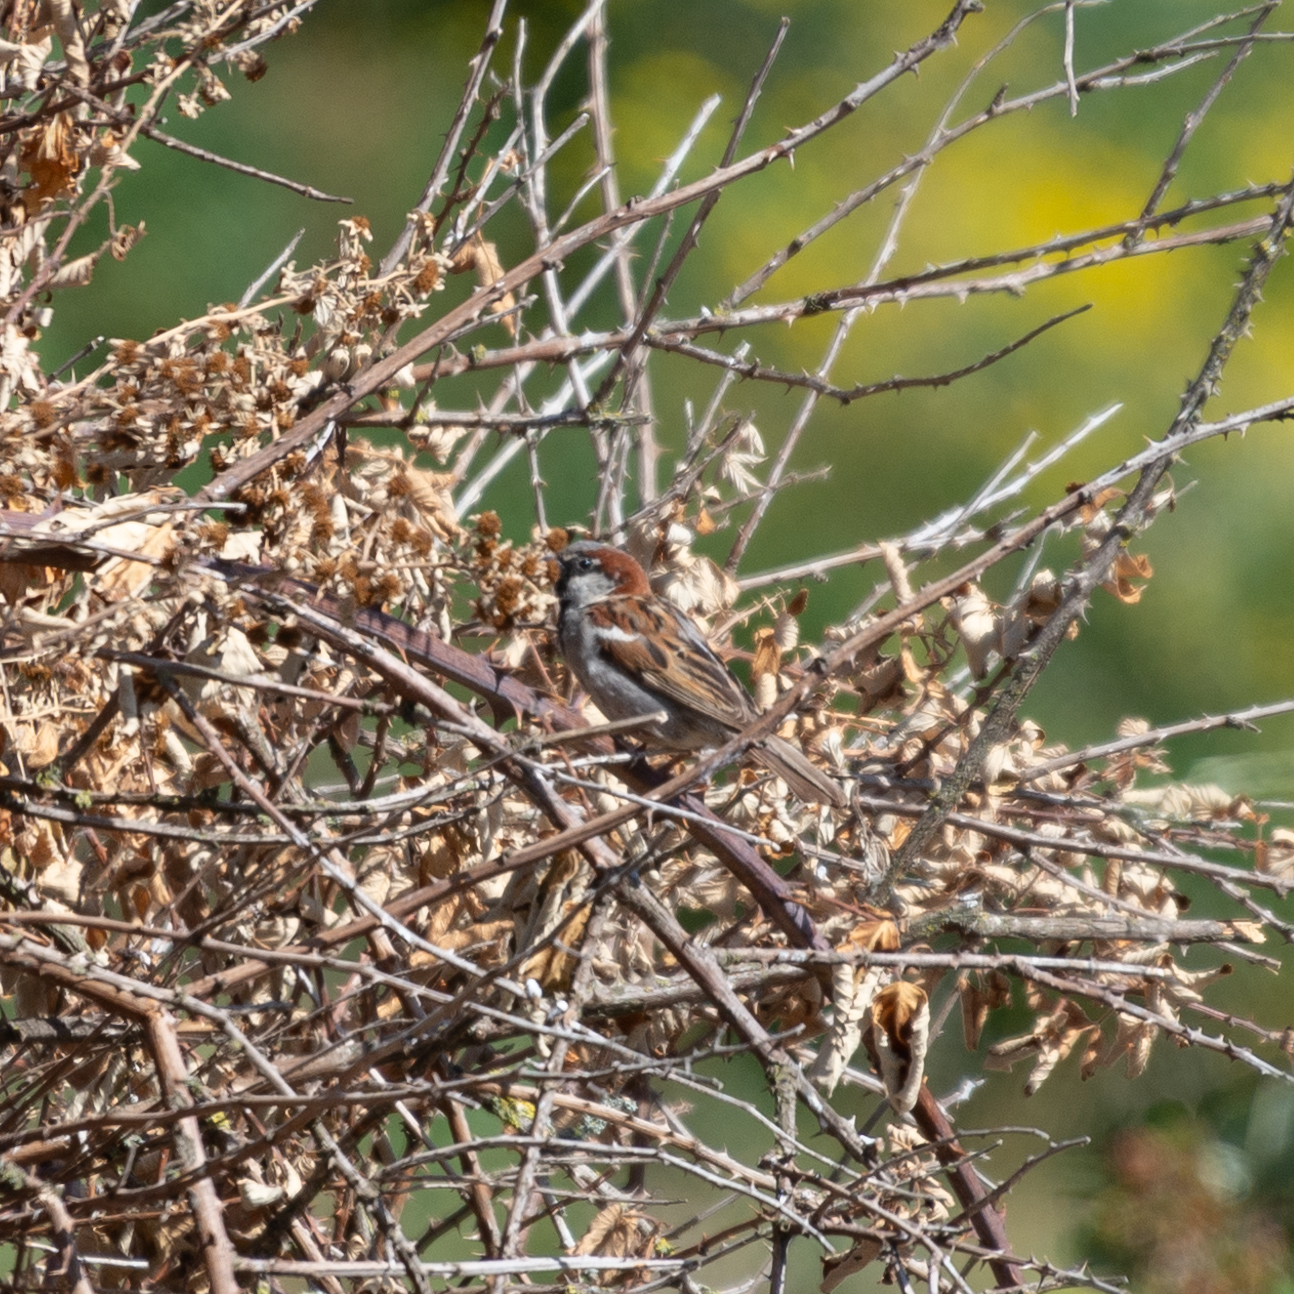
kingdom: Animalia
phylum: Chordata
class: Aves
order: Passeriformes
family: Passeridae
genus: Passer
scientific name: Passer domesticus
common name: House sparrow
